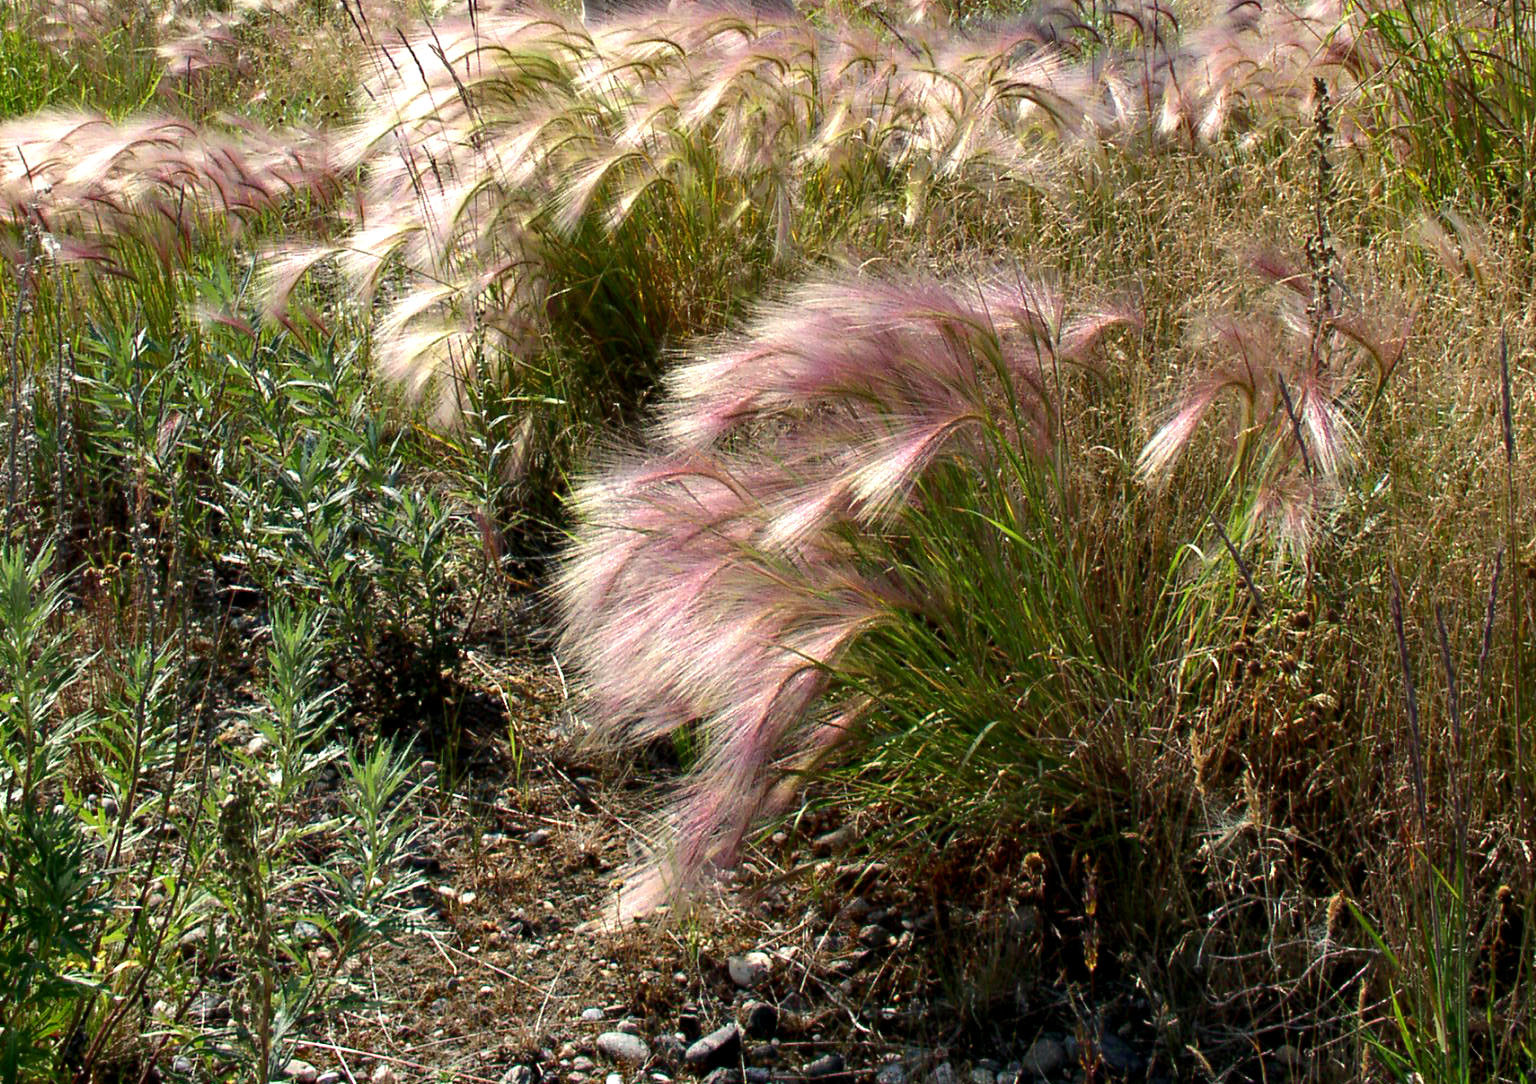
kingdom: Plantae
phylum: Tracheophyta
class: Liliopsida
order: Poales
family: Poaceae
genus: Hordeum
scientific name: Hordeum jubatum
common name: Foxtail barley
